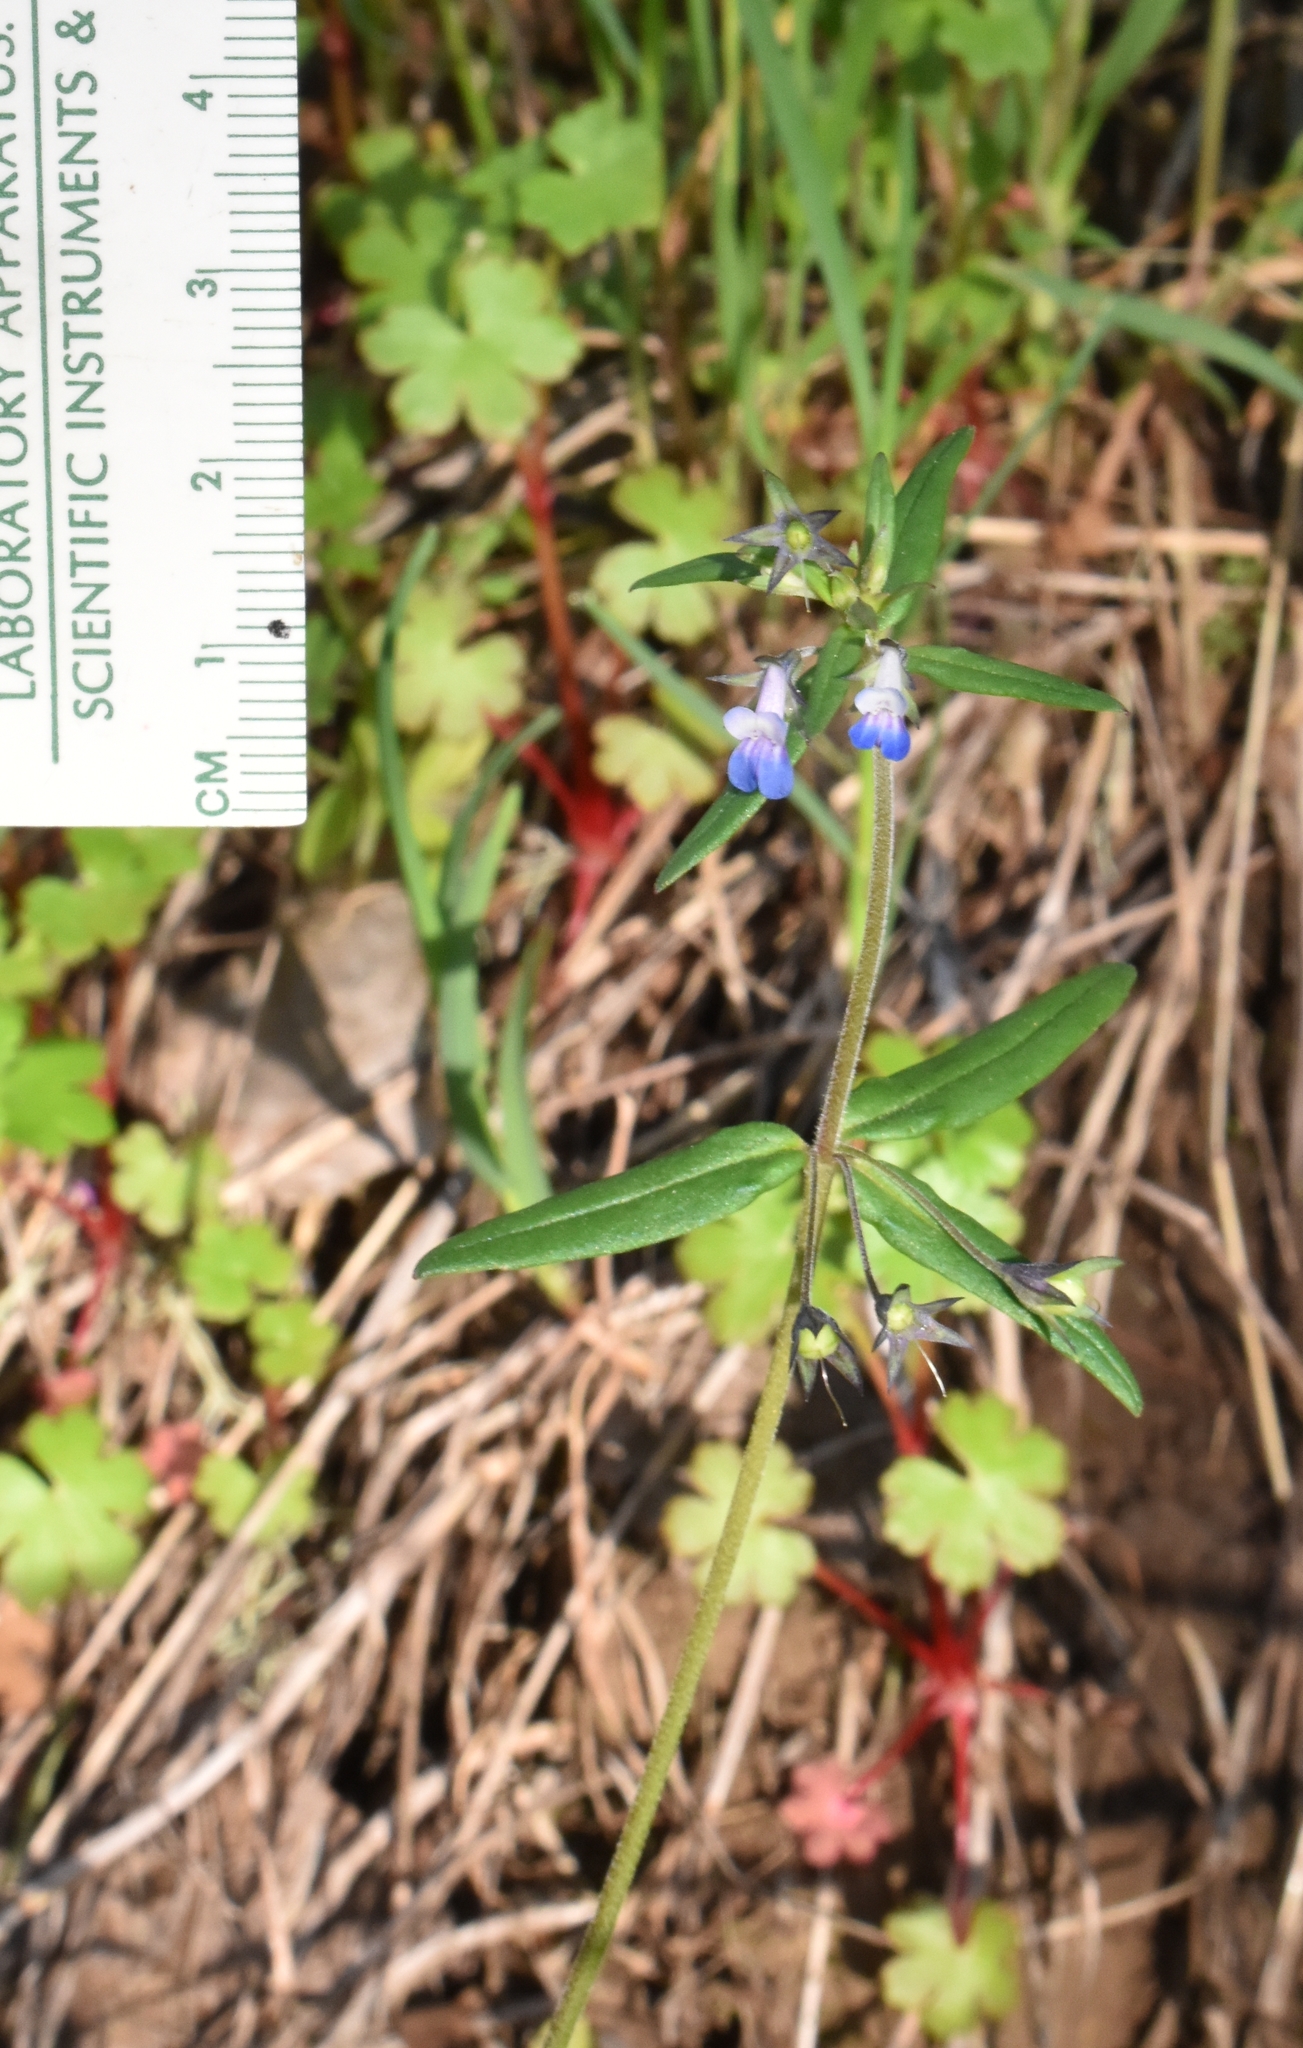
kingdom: Plantae
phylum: Tracheophyta
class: Magnoliopsida
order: Lamiales
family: Plantaginaceae
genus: Collinsia
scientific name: Collinsia parviflora
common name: Blue-lips
